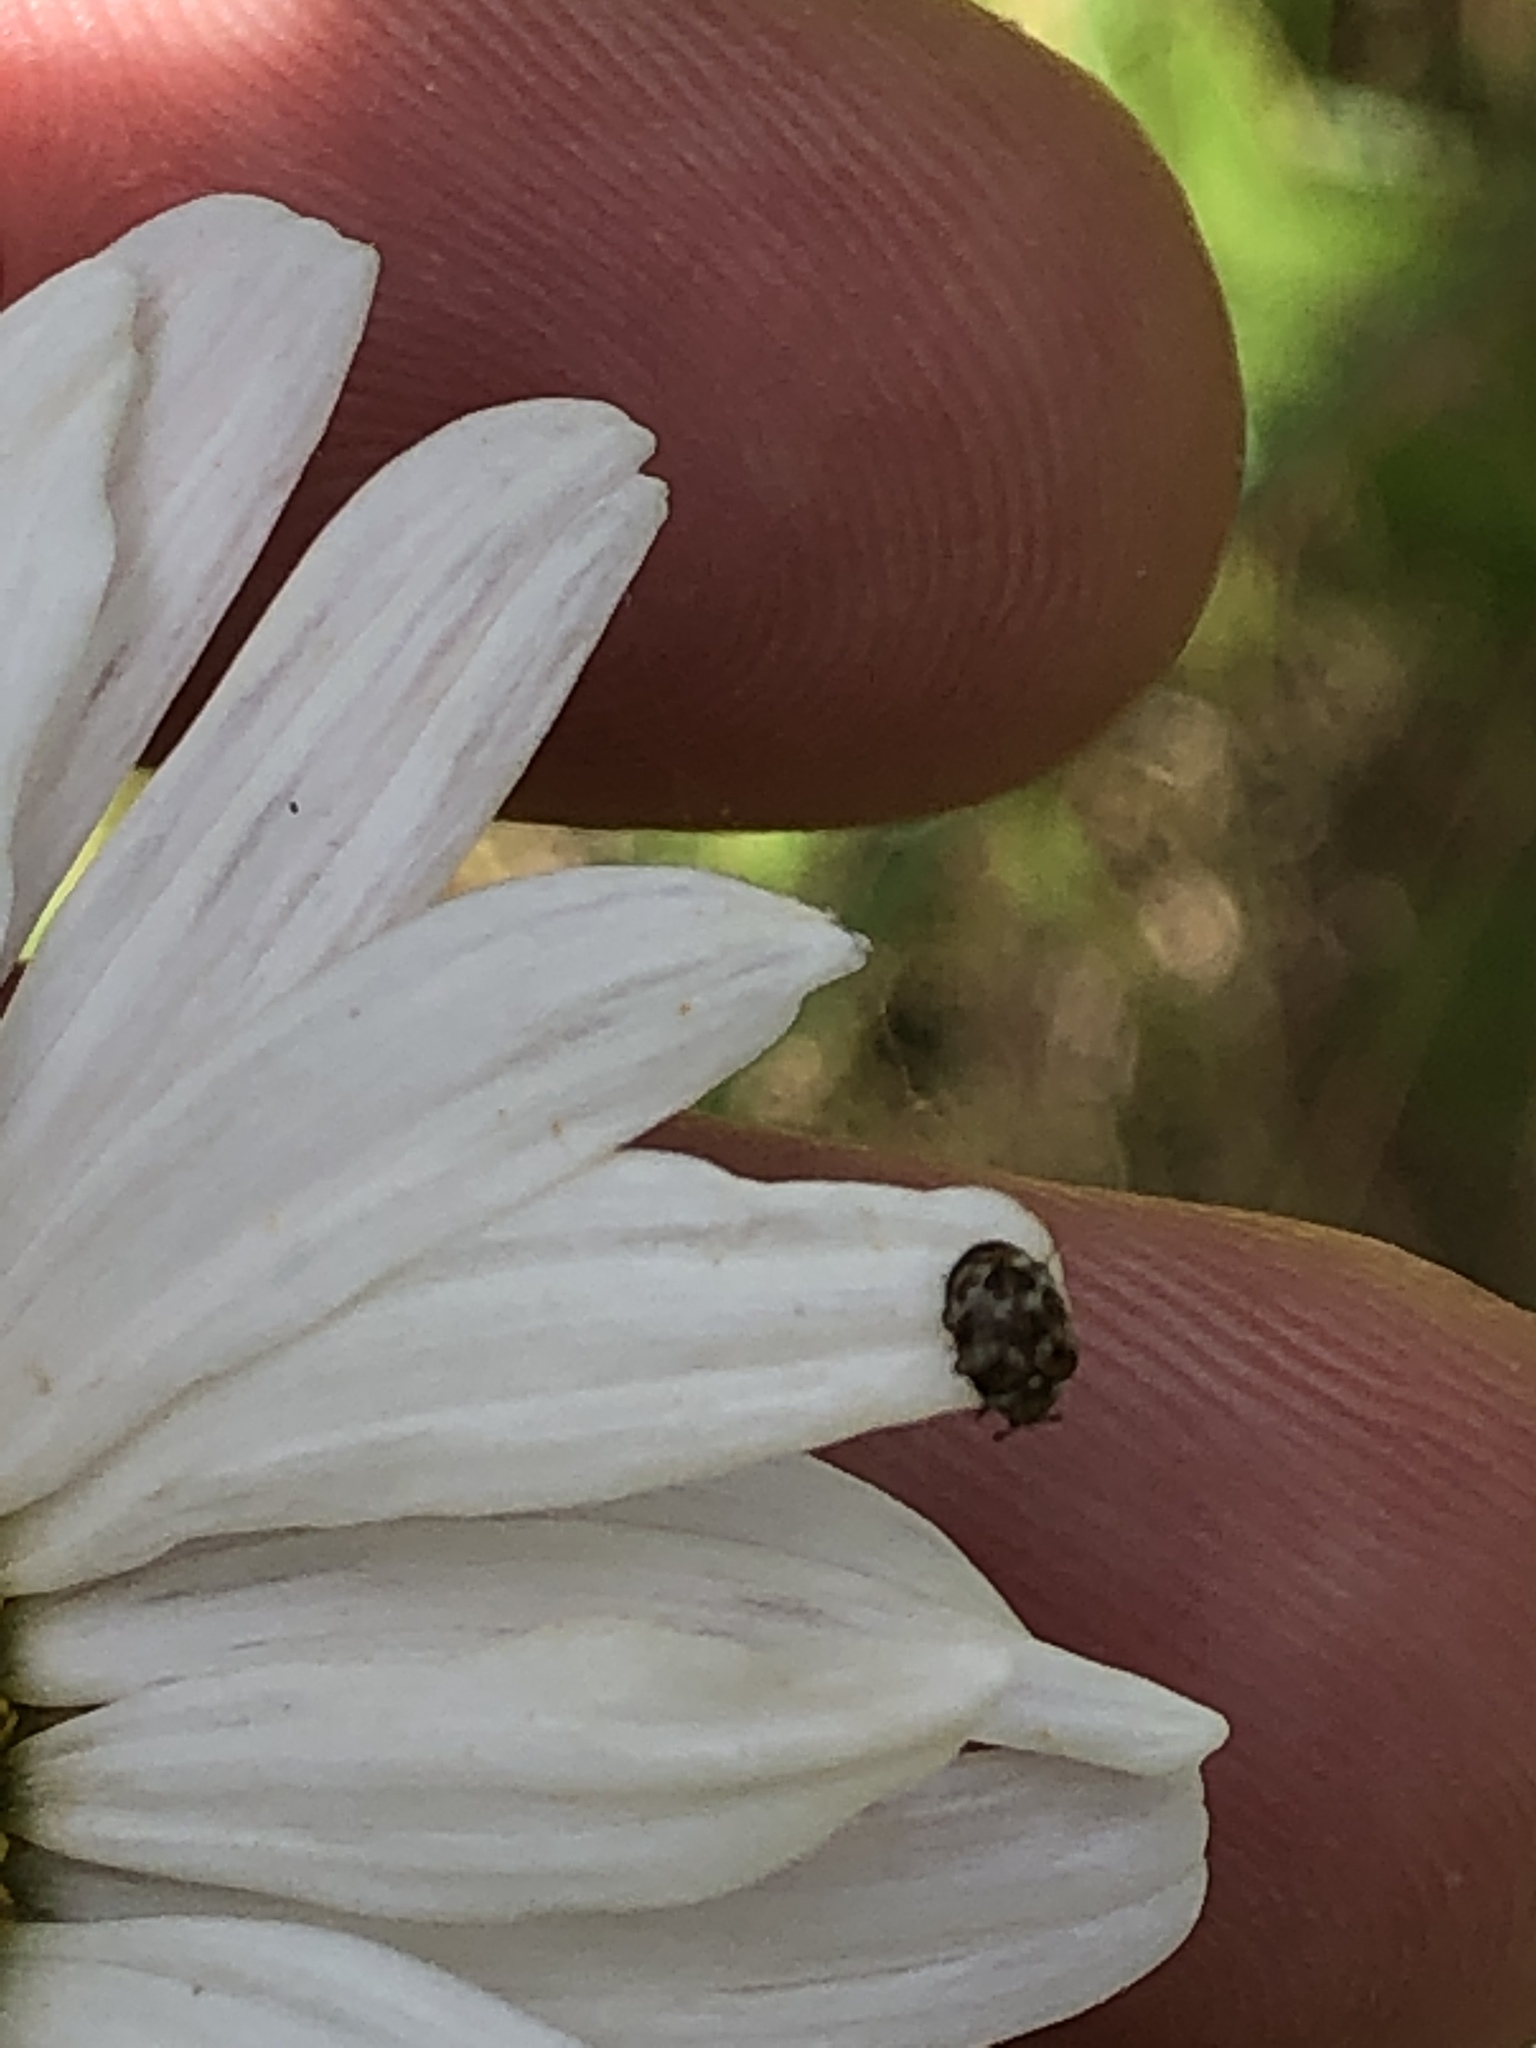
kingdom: Animalia
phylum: Arthropoda
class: Insecta
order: Coleoptera
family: Dermestidae
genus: Anthrenus
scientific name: Anthrenus verbasci
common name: Varied carpet beetle
